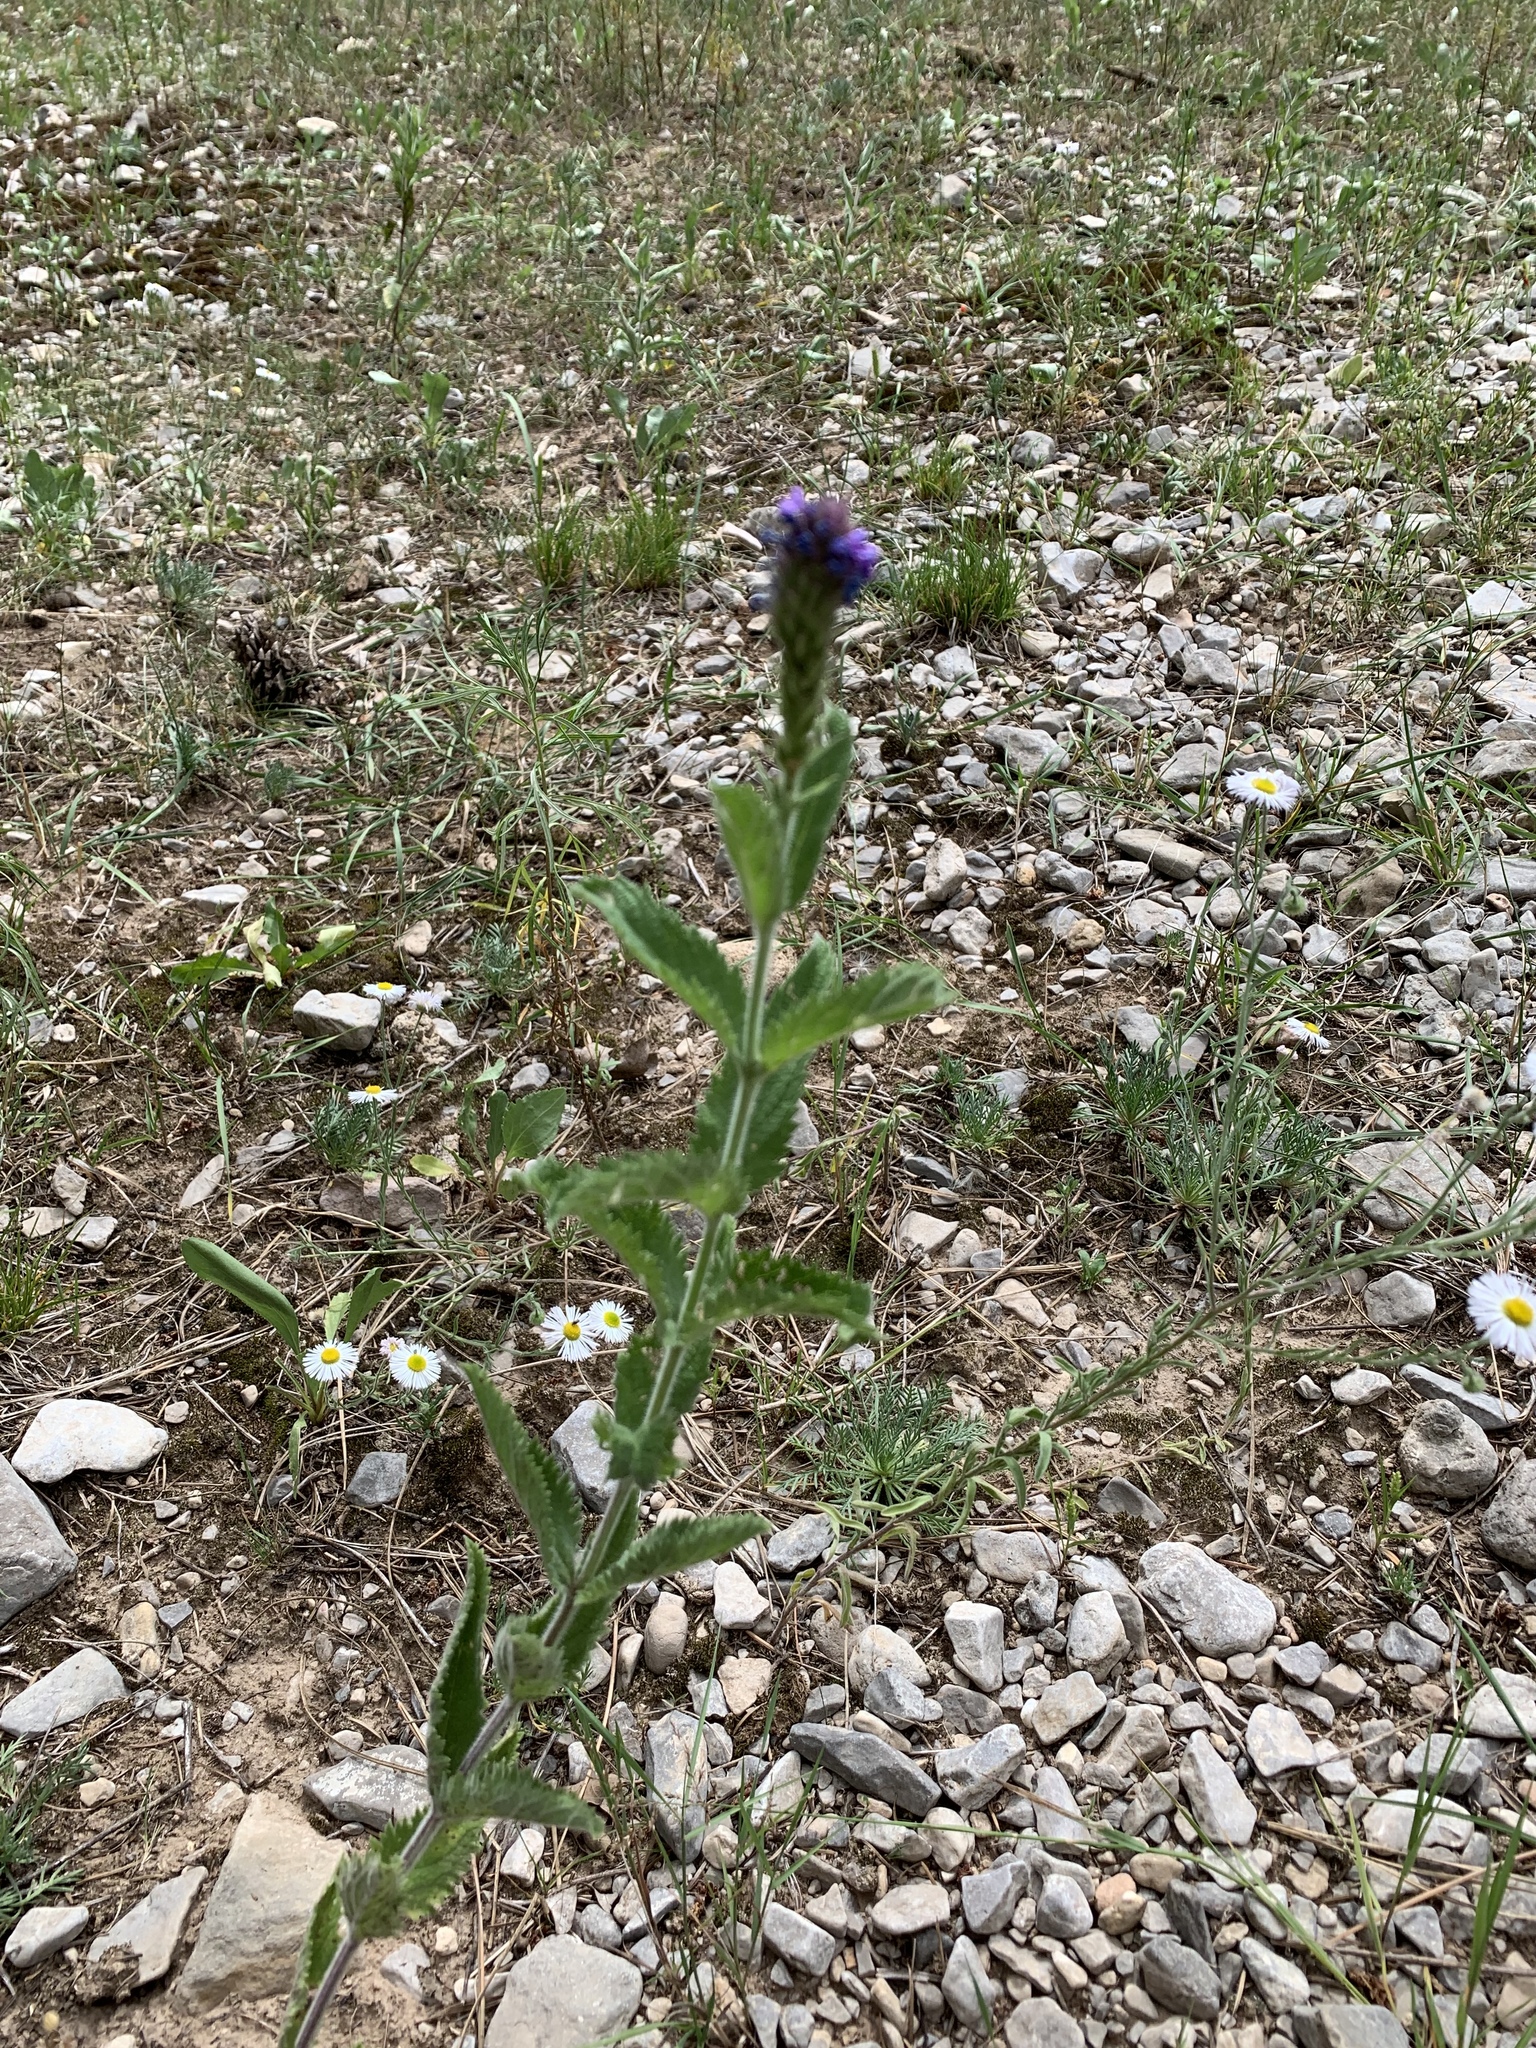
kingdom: Plantae
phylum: Tracheophyta
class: Magnoliopsida
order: Lamiales
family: Verbenaceae
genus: Verbena
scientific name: Verbena macdougalii
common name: New mexico vervain
